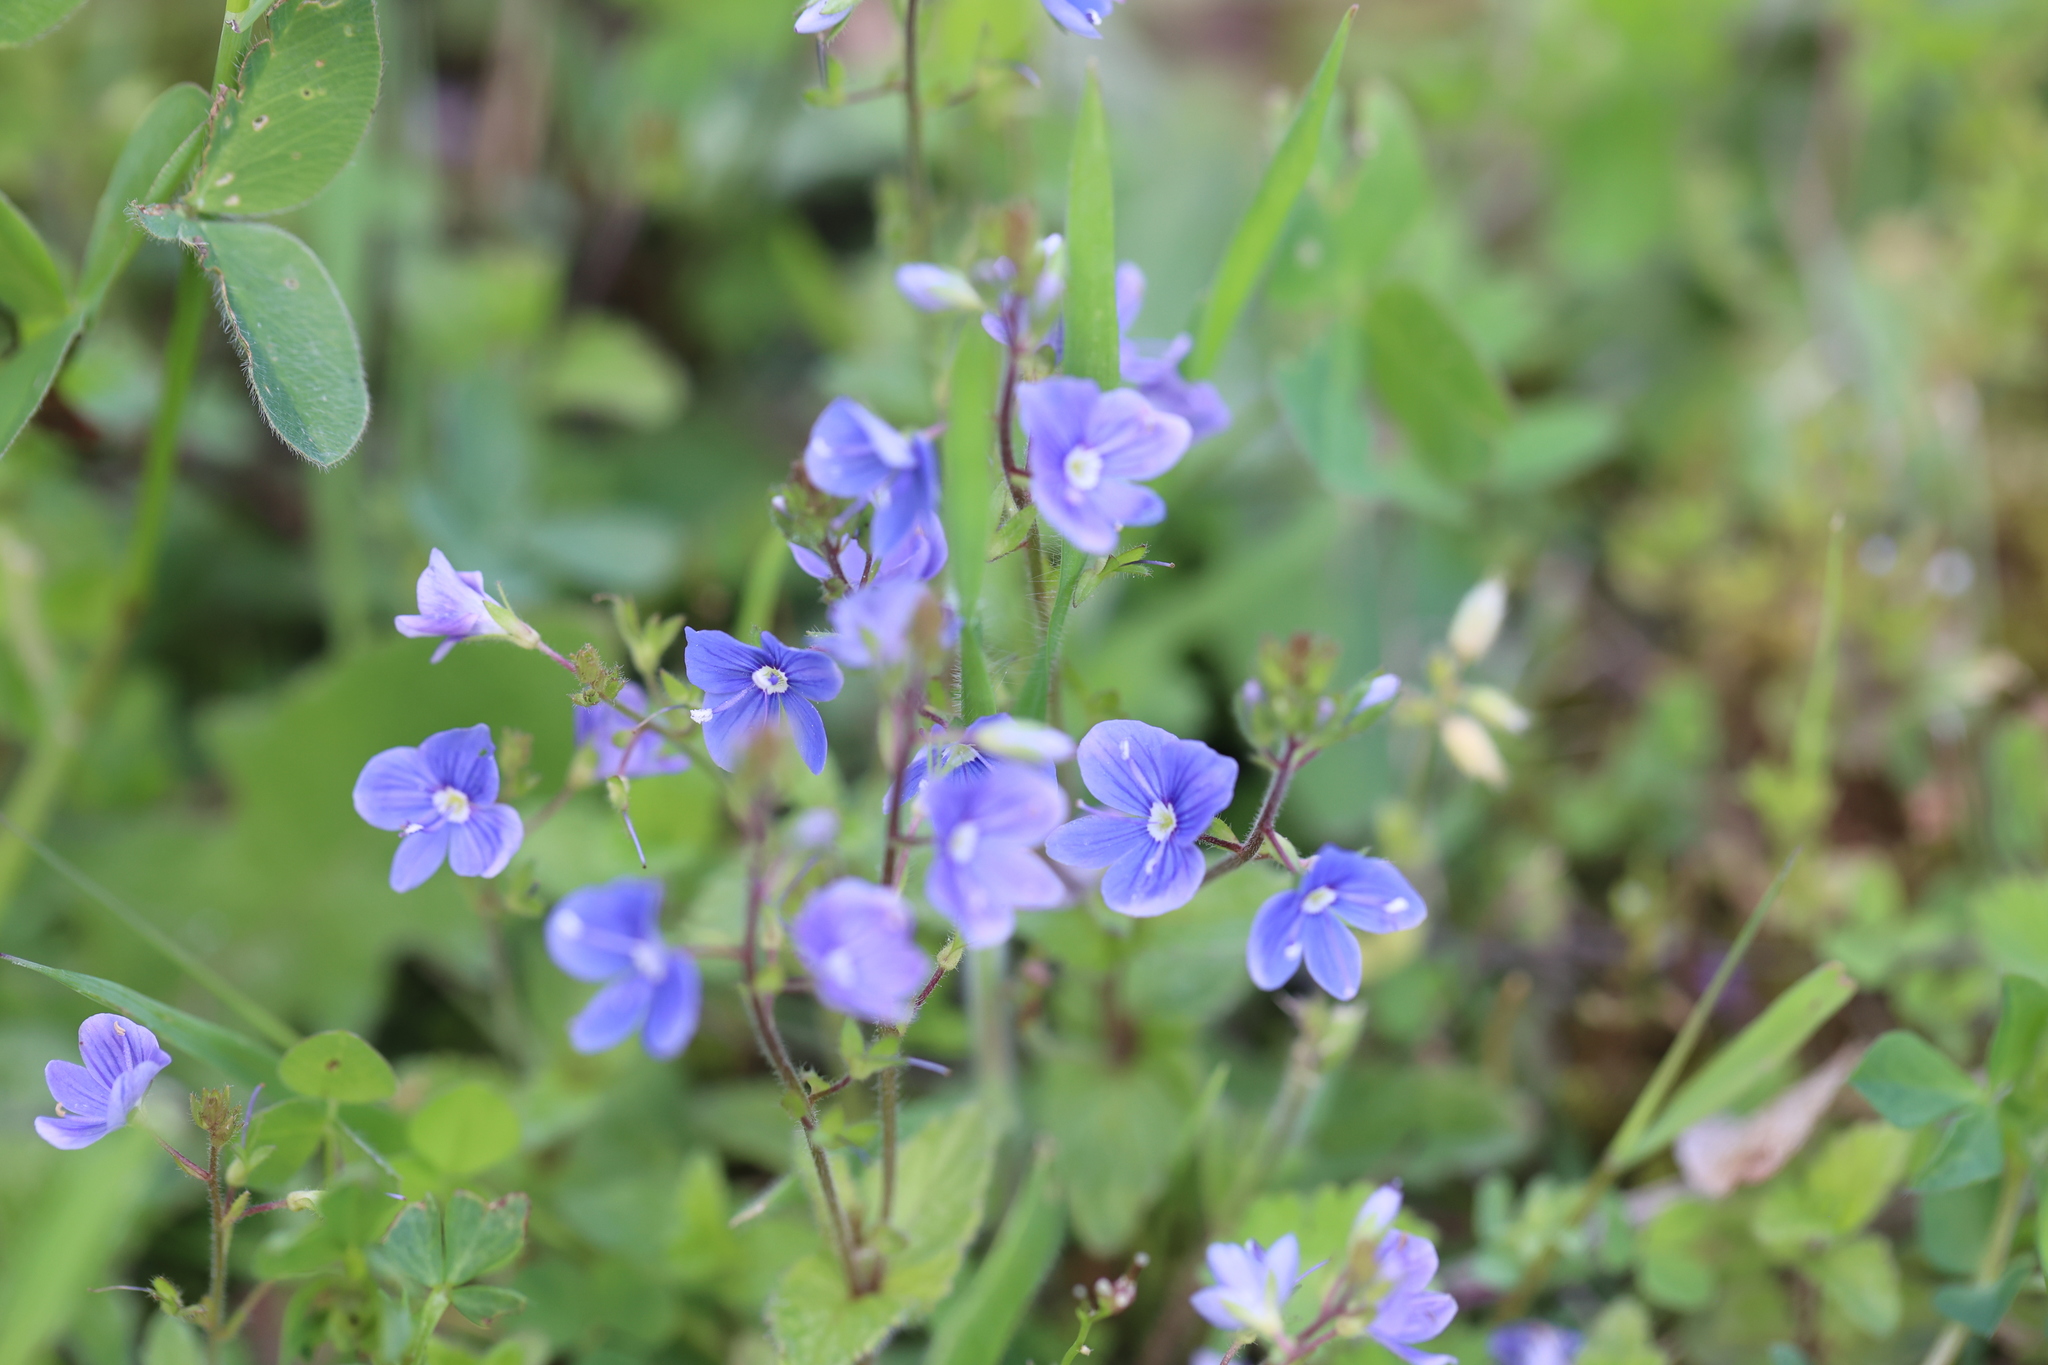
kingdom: Plantae
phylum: Tracheophyta
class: Magnoliopsida
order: Lamiales
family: Plantaginaceae
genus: Veronica
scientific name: Veronica chamaedrys
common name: Germander speedwell
